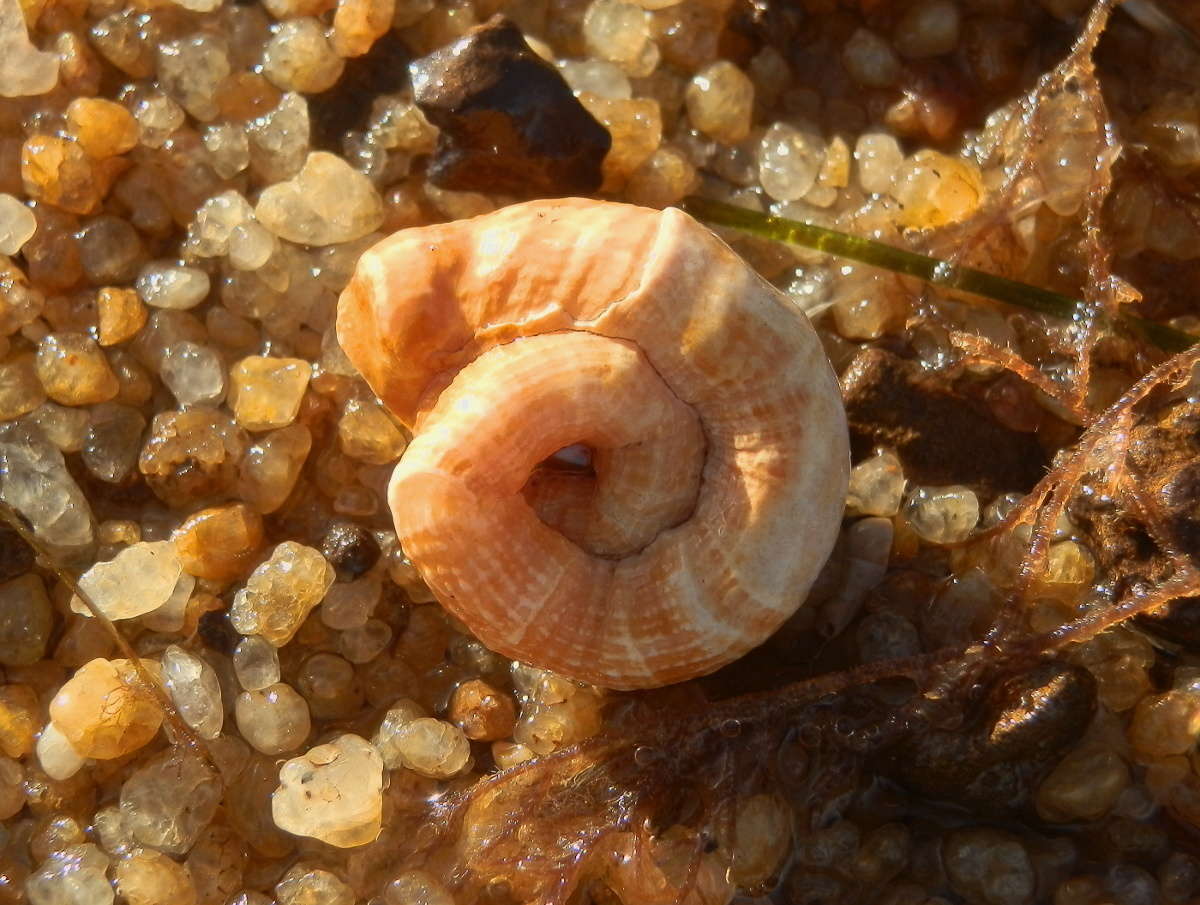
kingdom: Animalia
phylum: Mollusca
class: Gastropoda
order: Littorinimorpha
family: Vermetidae
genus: Thylacodes
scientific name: Thylacodes sipho
